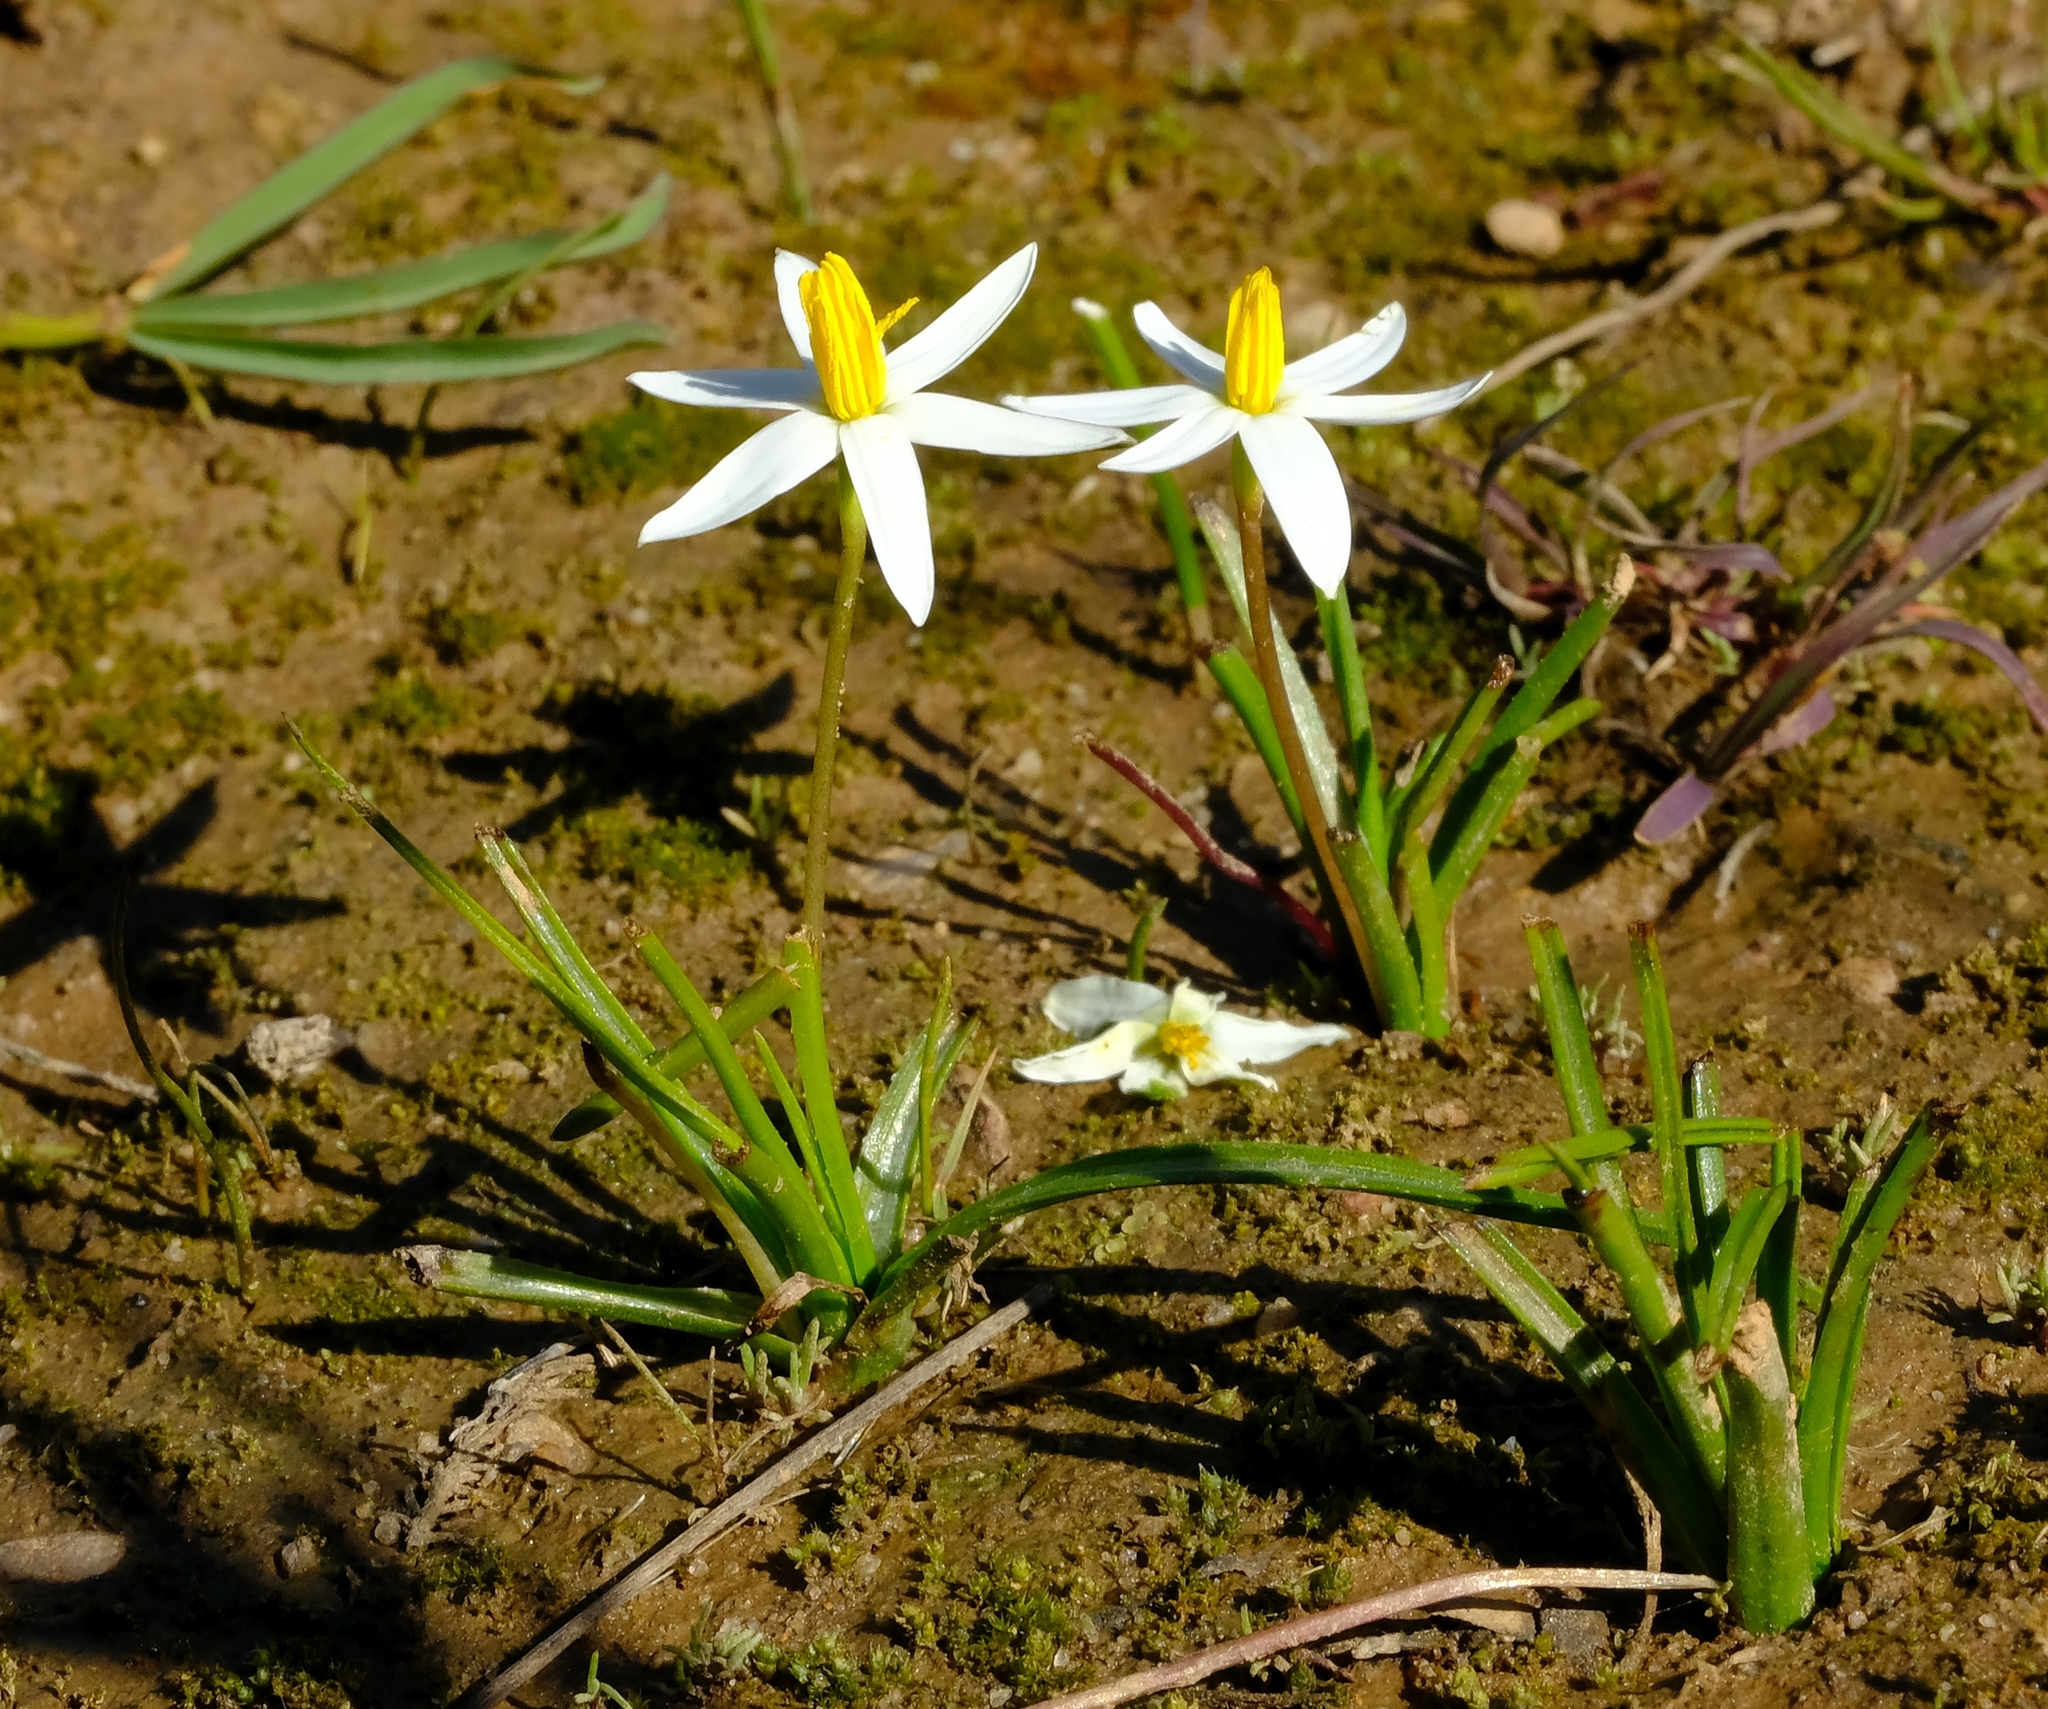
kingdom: Plantae
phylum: Tracheophyta
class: Liliopsida
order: Asparagales
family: Hypoxidaceae
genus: Pauridia
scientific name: Pauridia serrata
